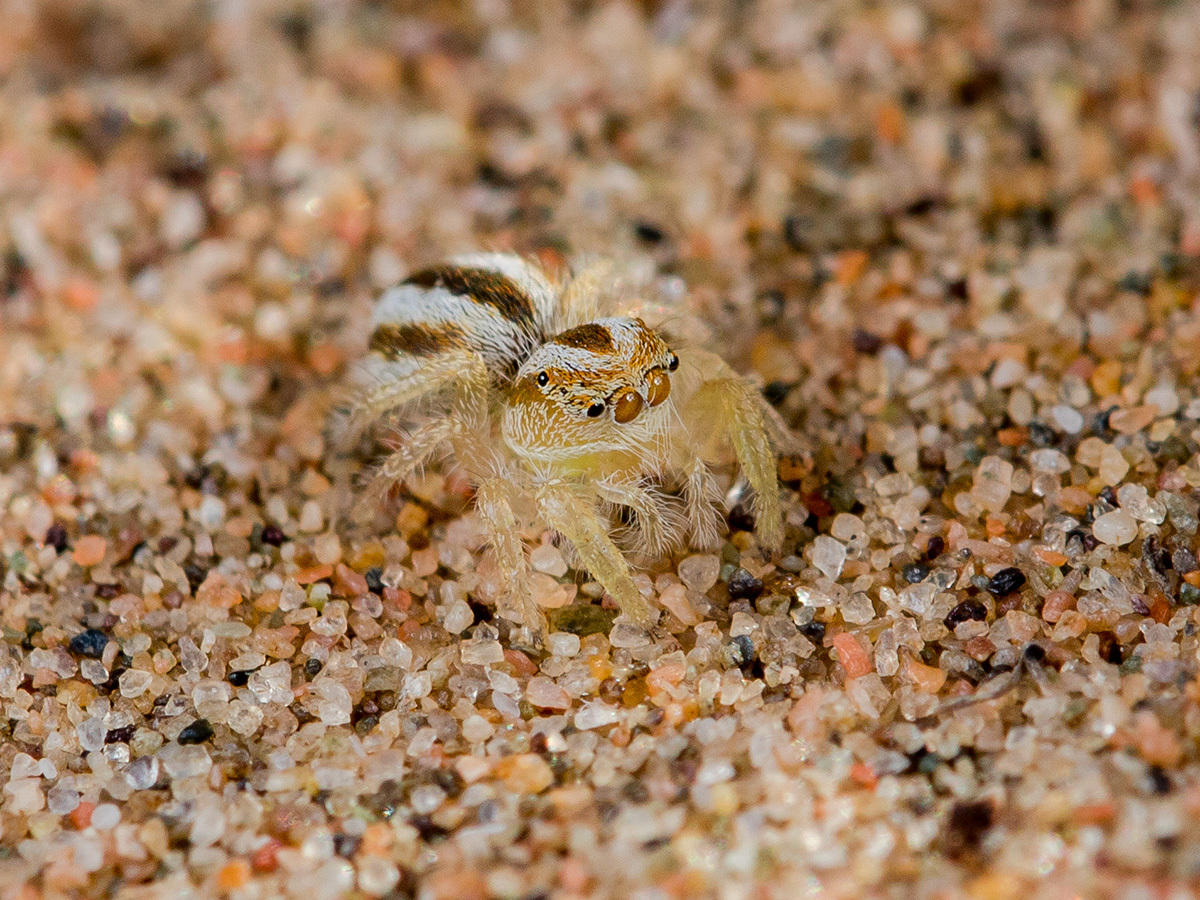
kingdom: Animalia
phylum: Arthropoda
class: Arachnida
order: Araneae
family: Salticidae
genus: Pseudomogrus
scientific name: Pseudomogrus zhilgaensis
